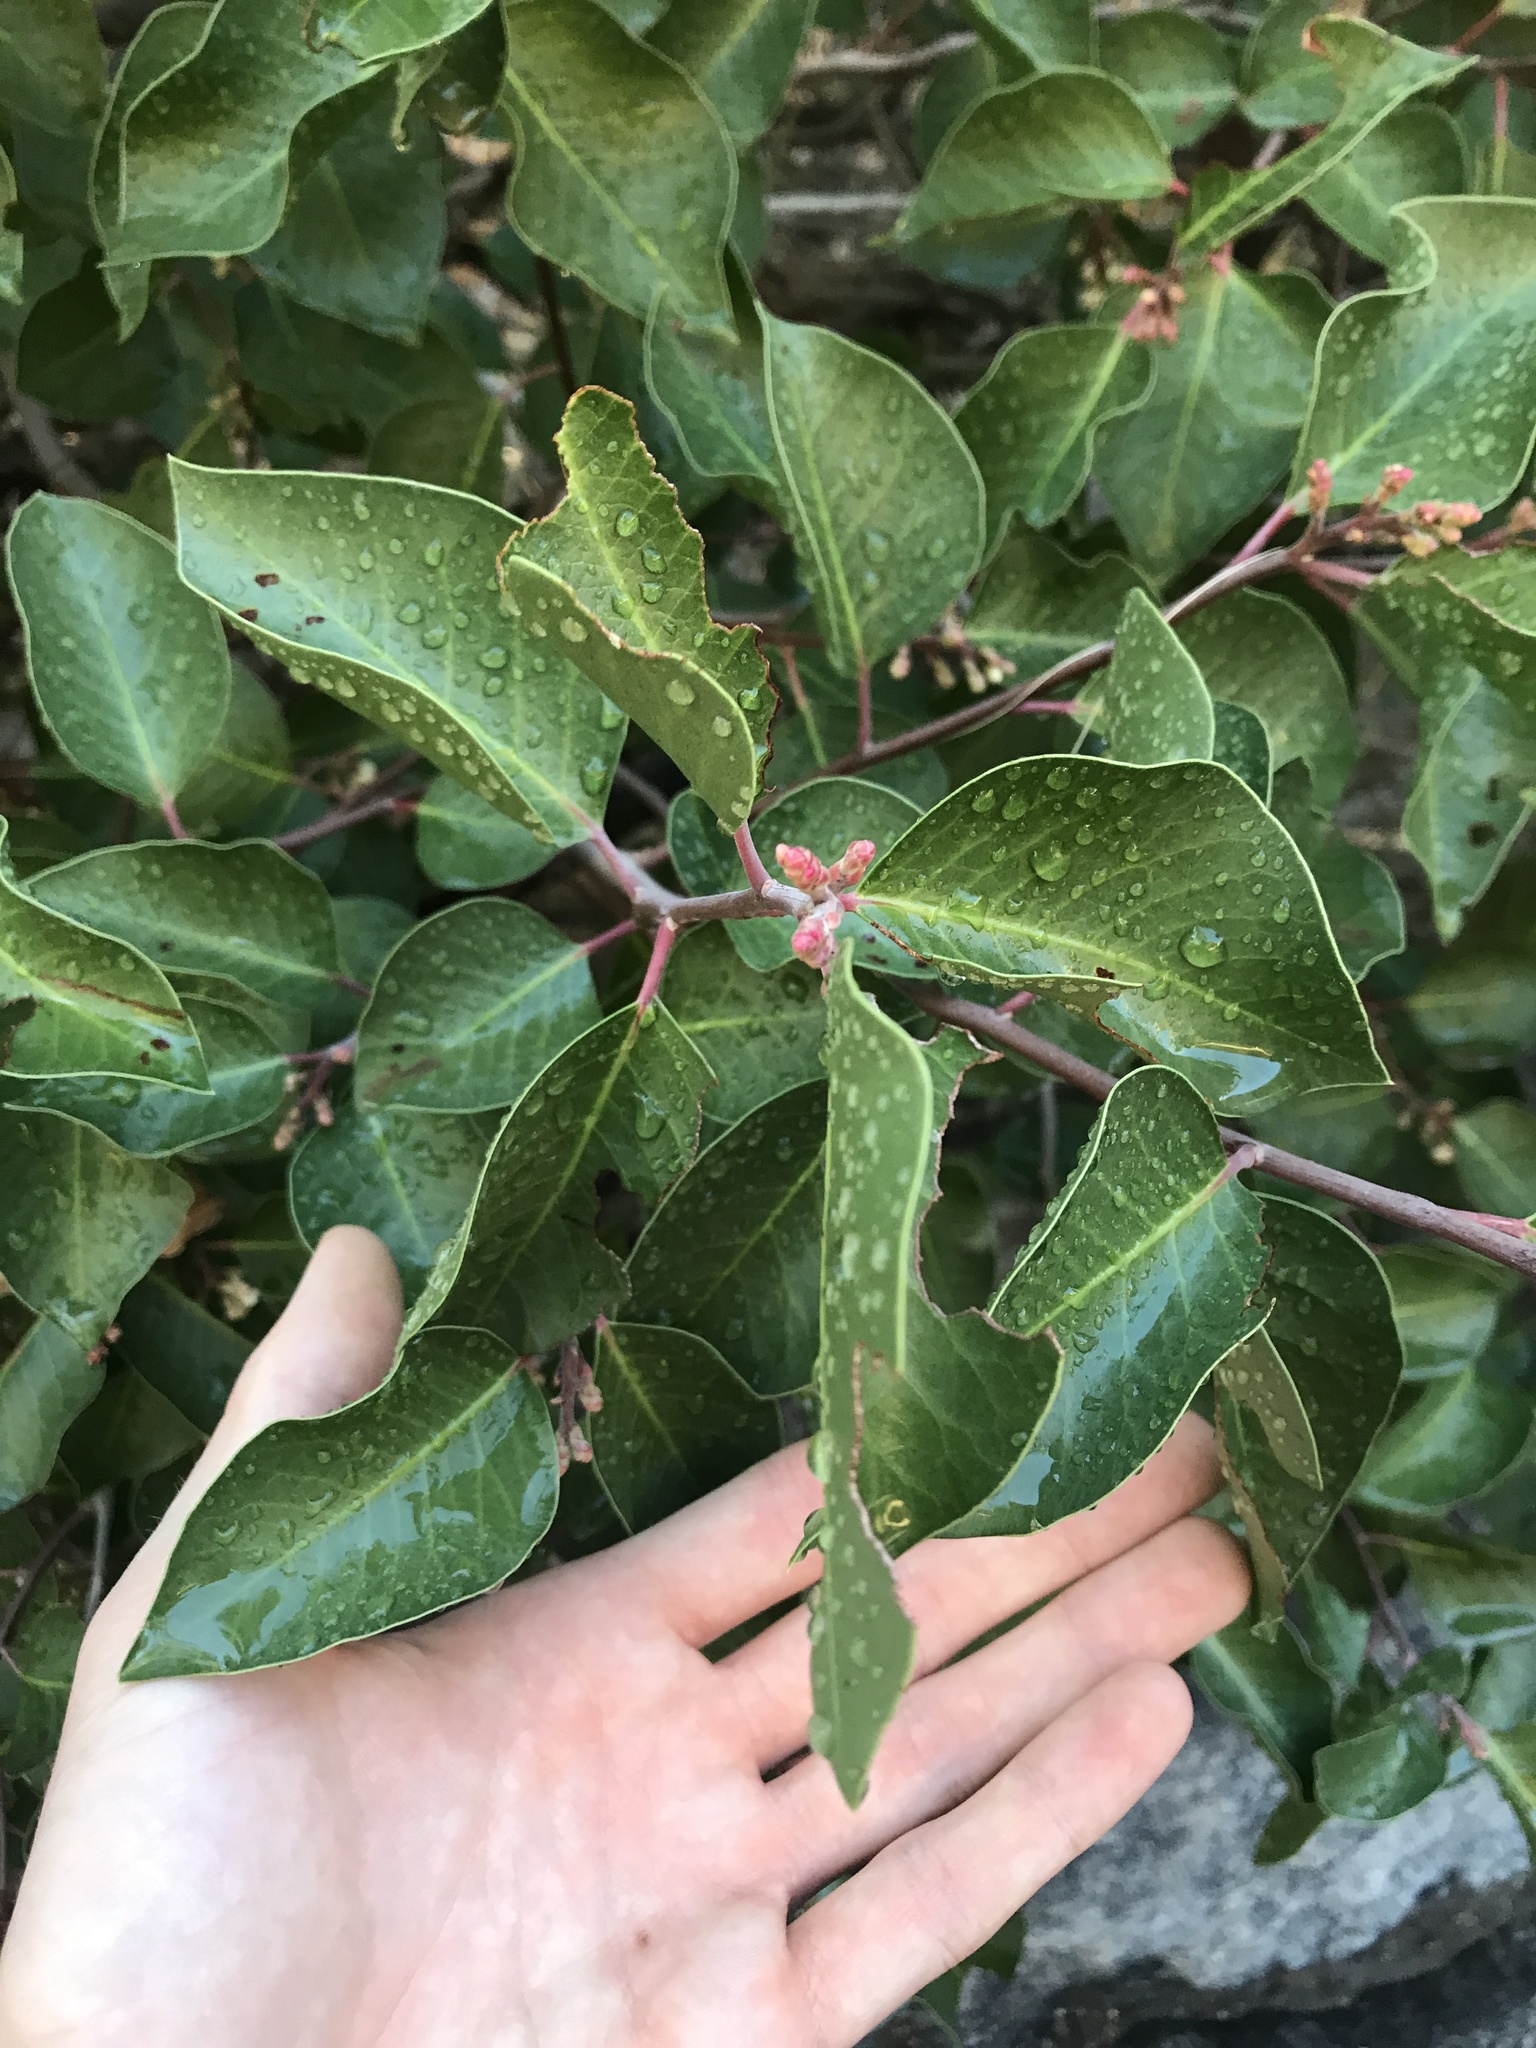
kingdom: Plantae
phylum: Tracheophyta
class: Magnoliopsida
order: Sapindales
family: Anacardiaceae
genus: Rhus
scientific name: Rhus ovata
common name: Sugar sumac
